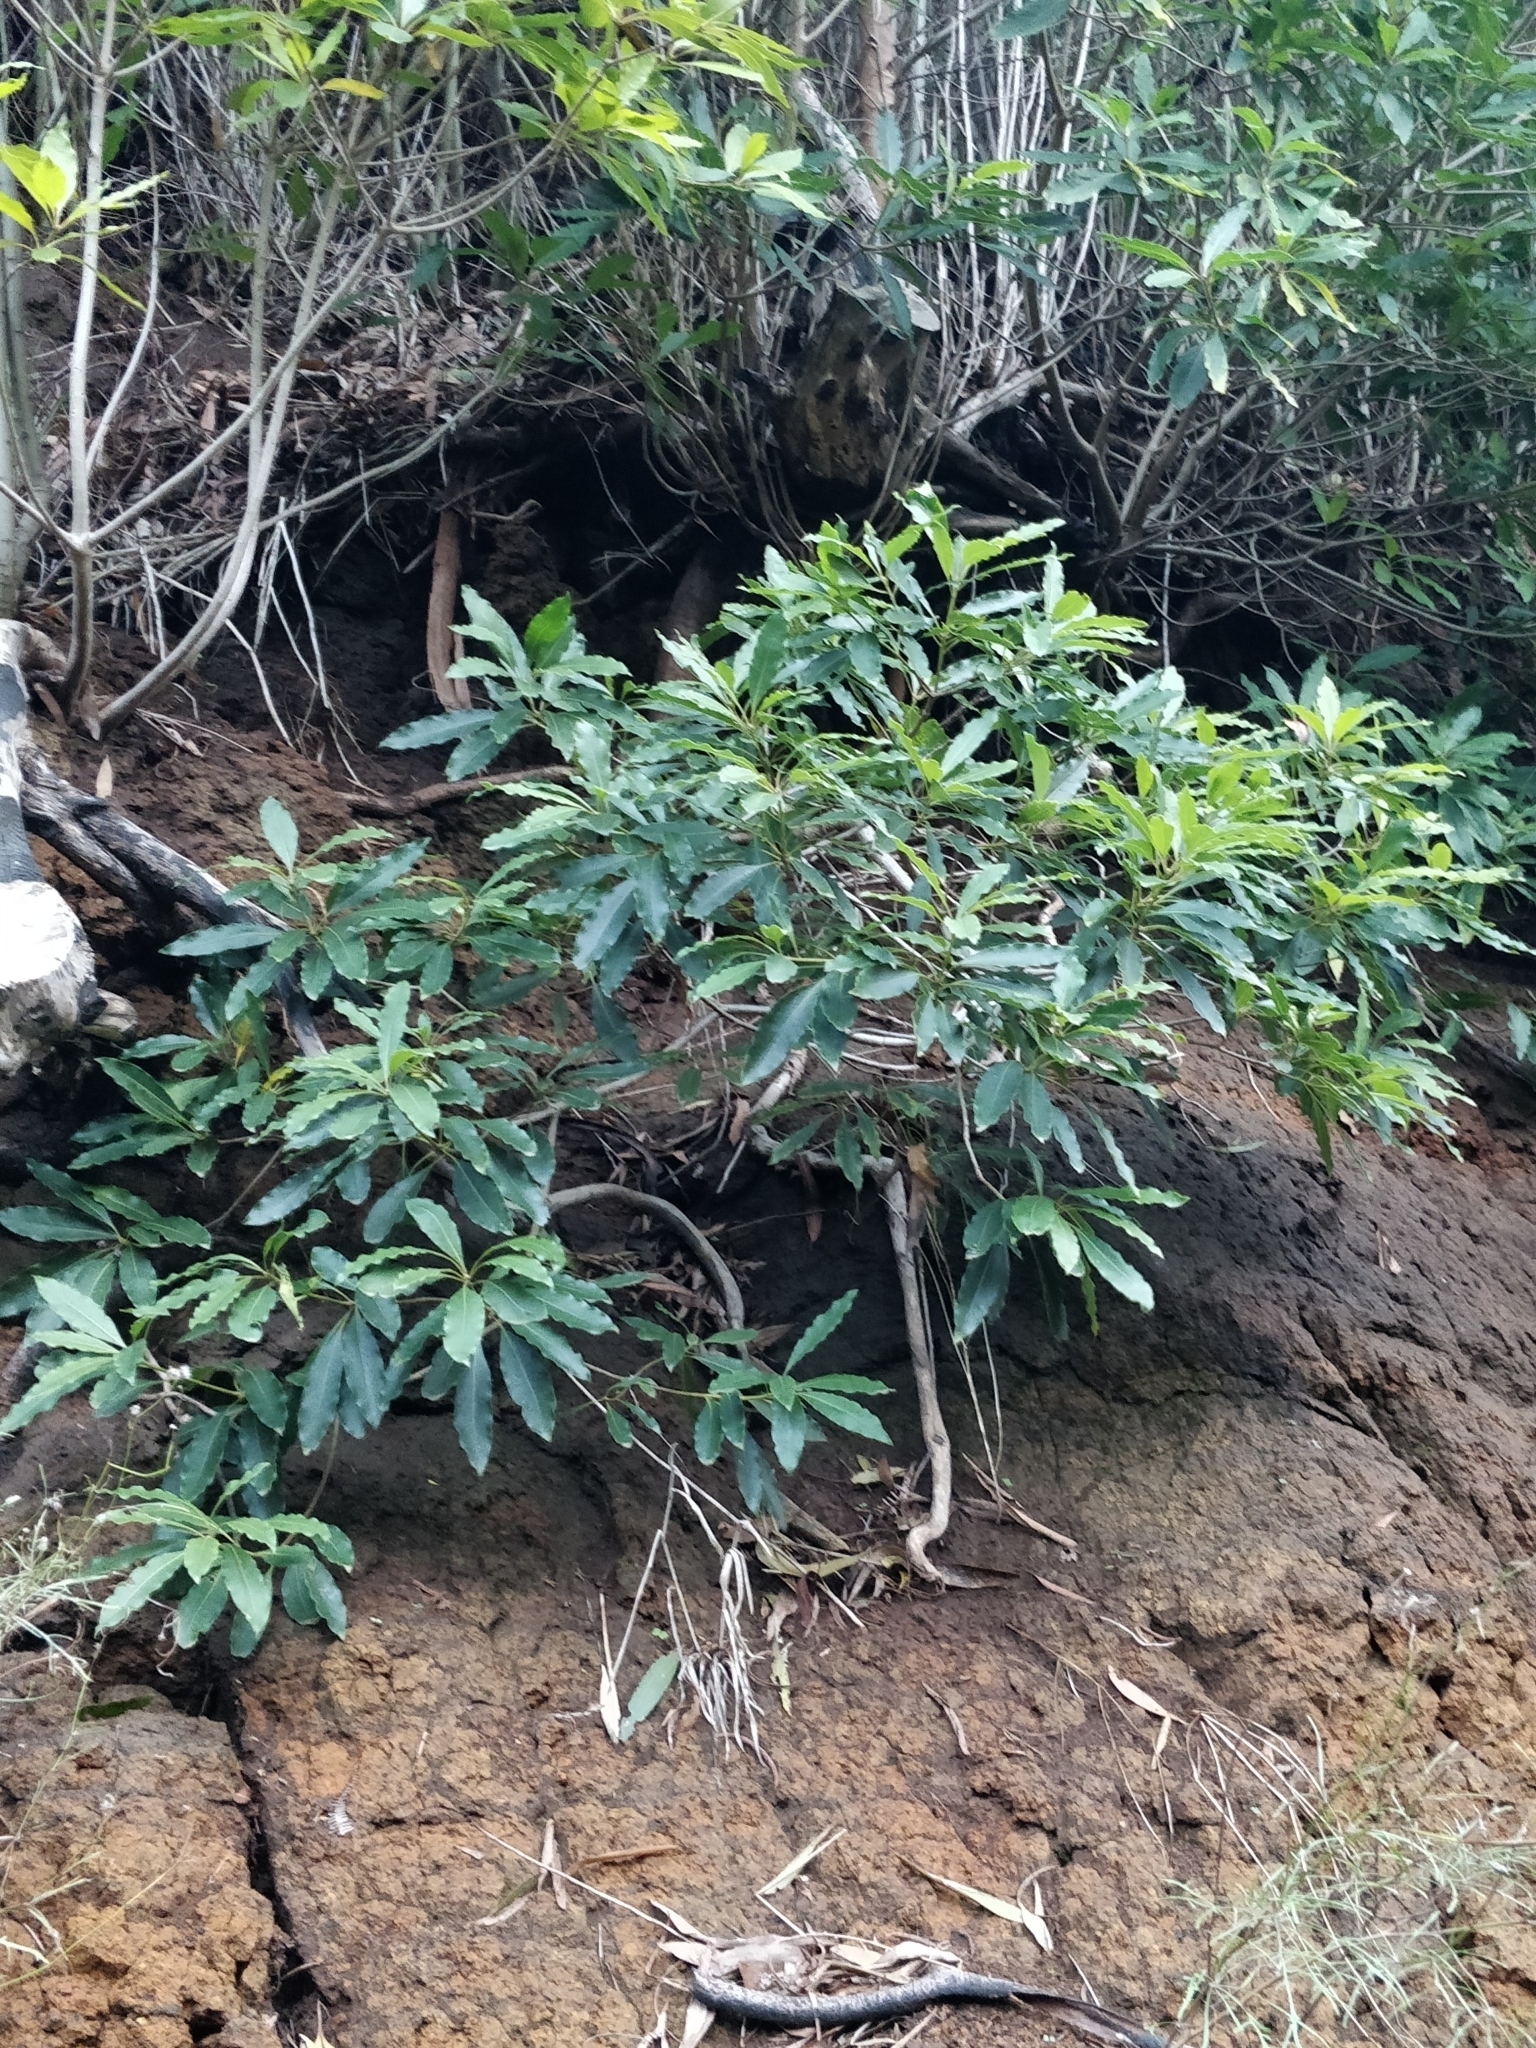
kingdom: Plantae
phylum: Tracheophyta
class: Magnoliopsida
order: Apiales
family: Pittosporaceae
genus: Pittosporum
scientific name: Pittosporum undulatum
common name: Australian cheesewood
